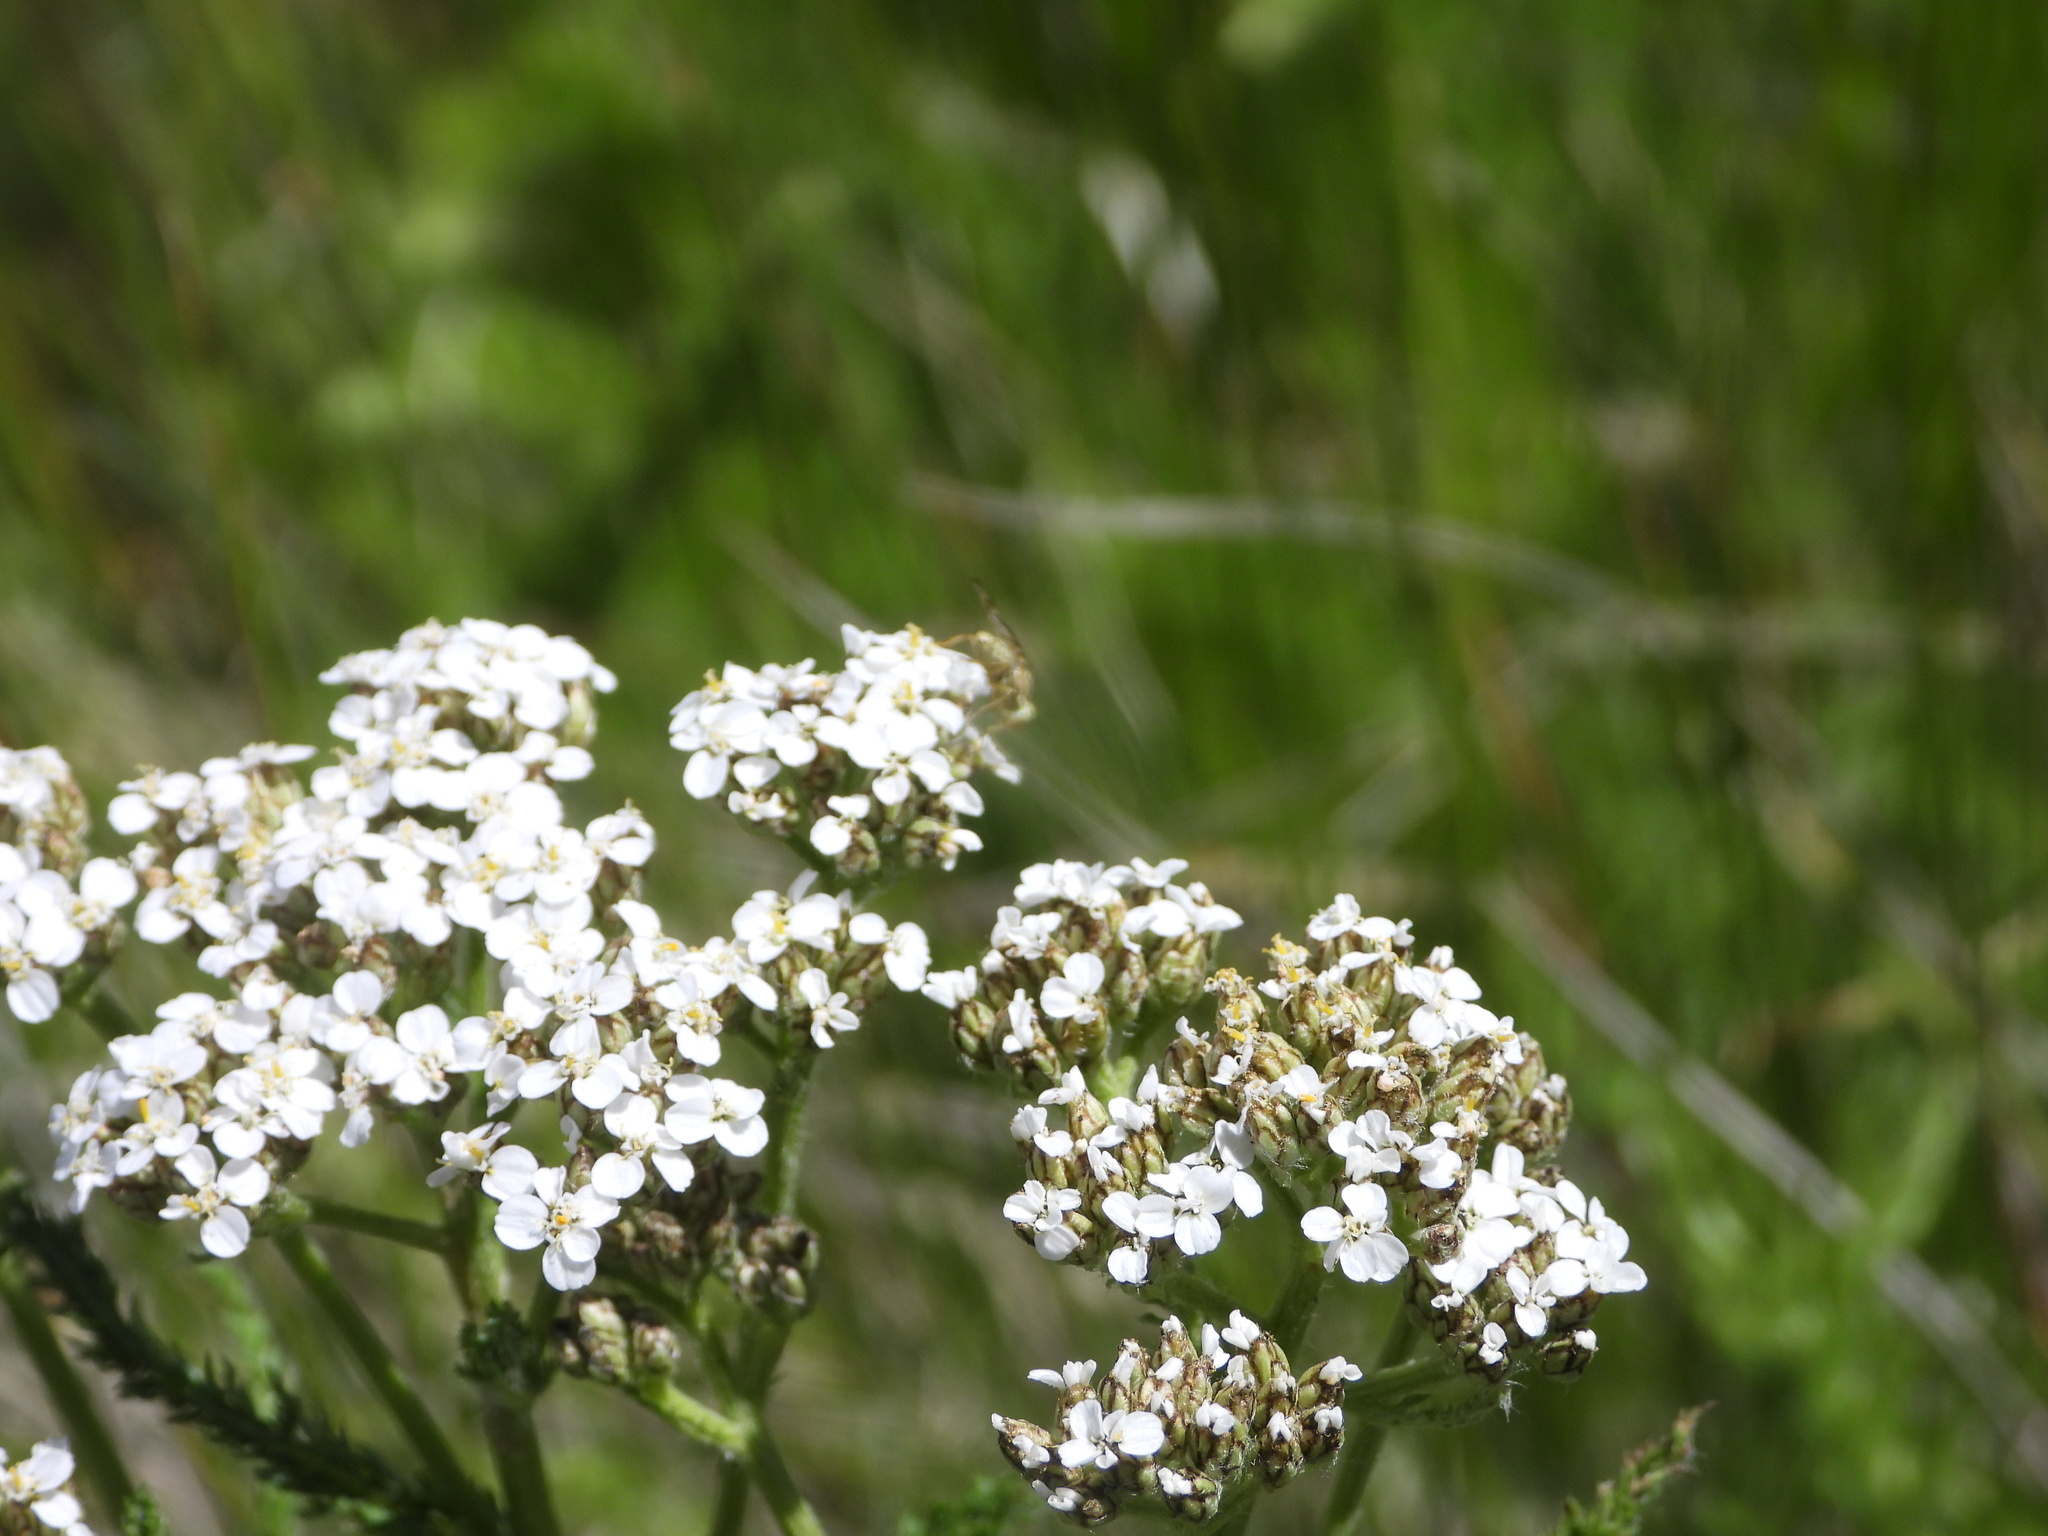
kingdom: Plantae
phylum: Tracheophyta
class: Magnoliopsida
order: Asterales
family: Asteraceae
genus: Achillea
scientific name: Achillea millefolium
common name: Yarrow
